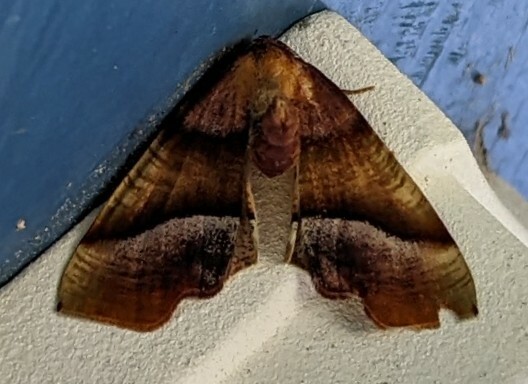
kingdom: Animalia
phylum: Arthropoda
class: Insecta
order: Lepidoptera
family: Geometridae
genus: Plagodis
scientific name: Plagodis phlogosaria
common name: Straight-lined plagodis
